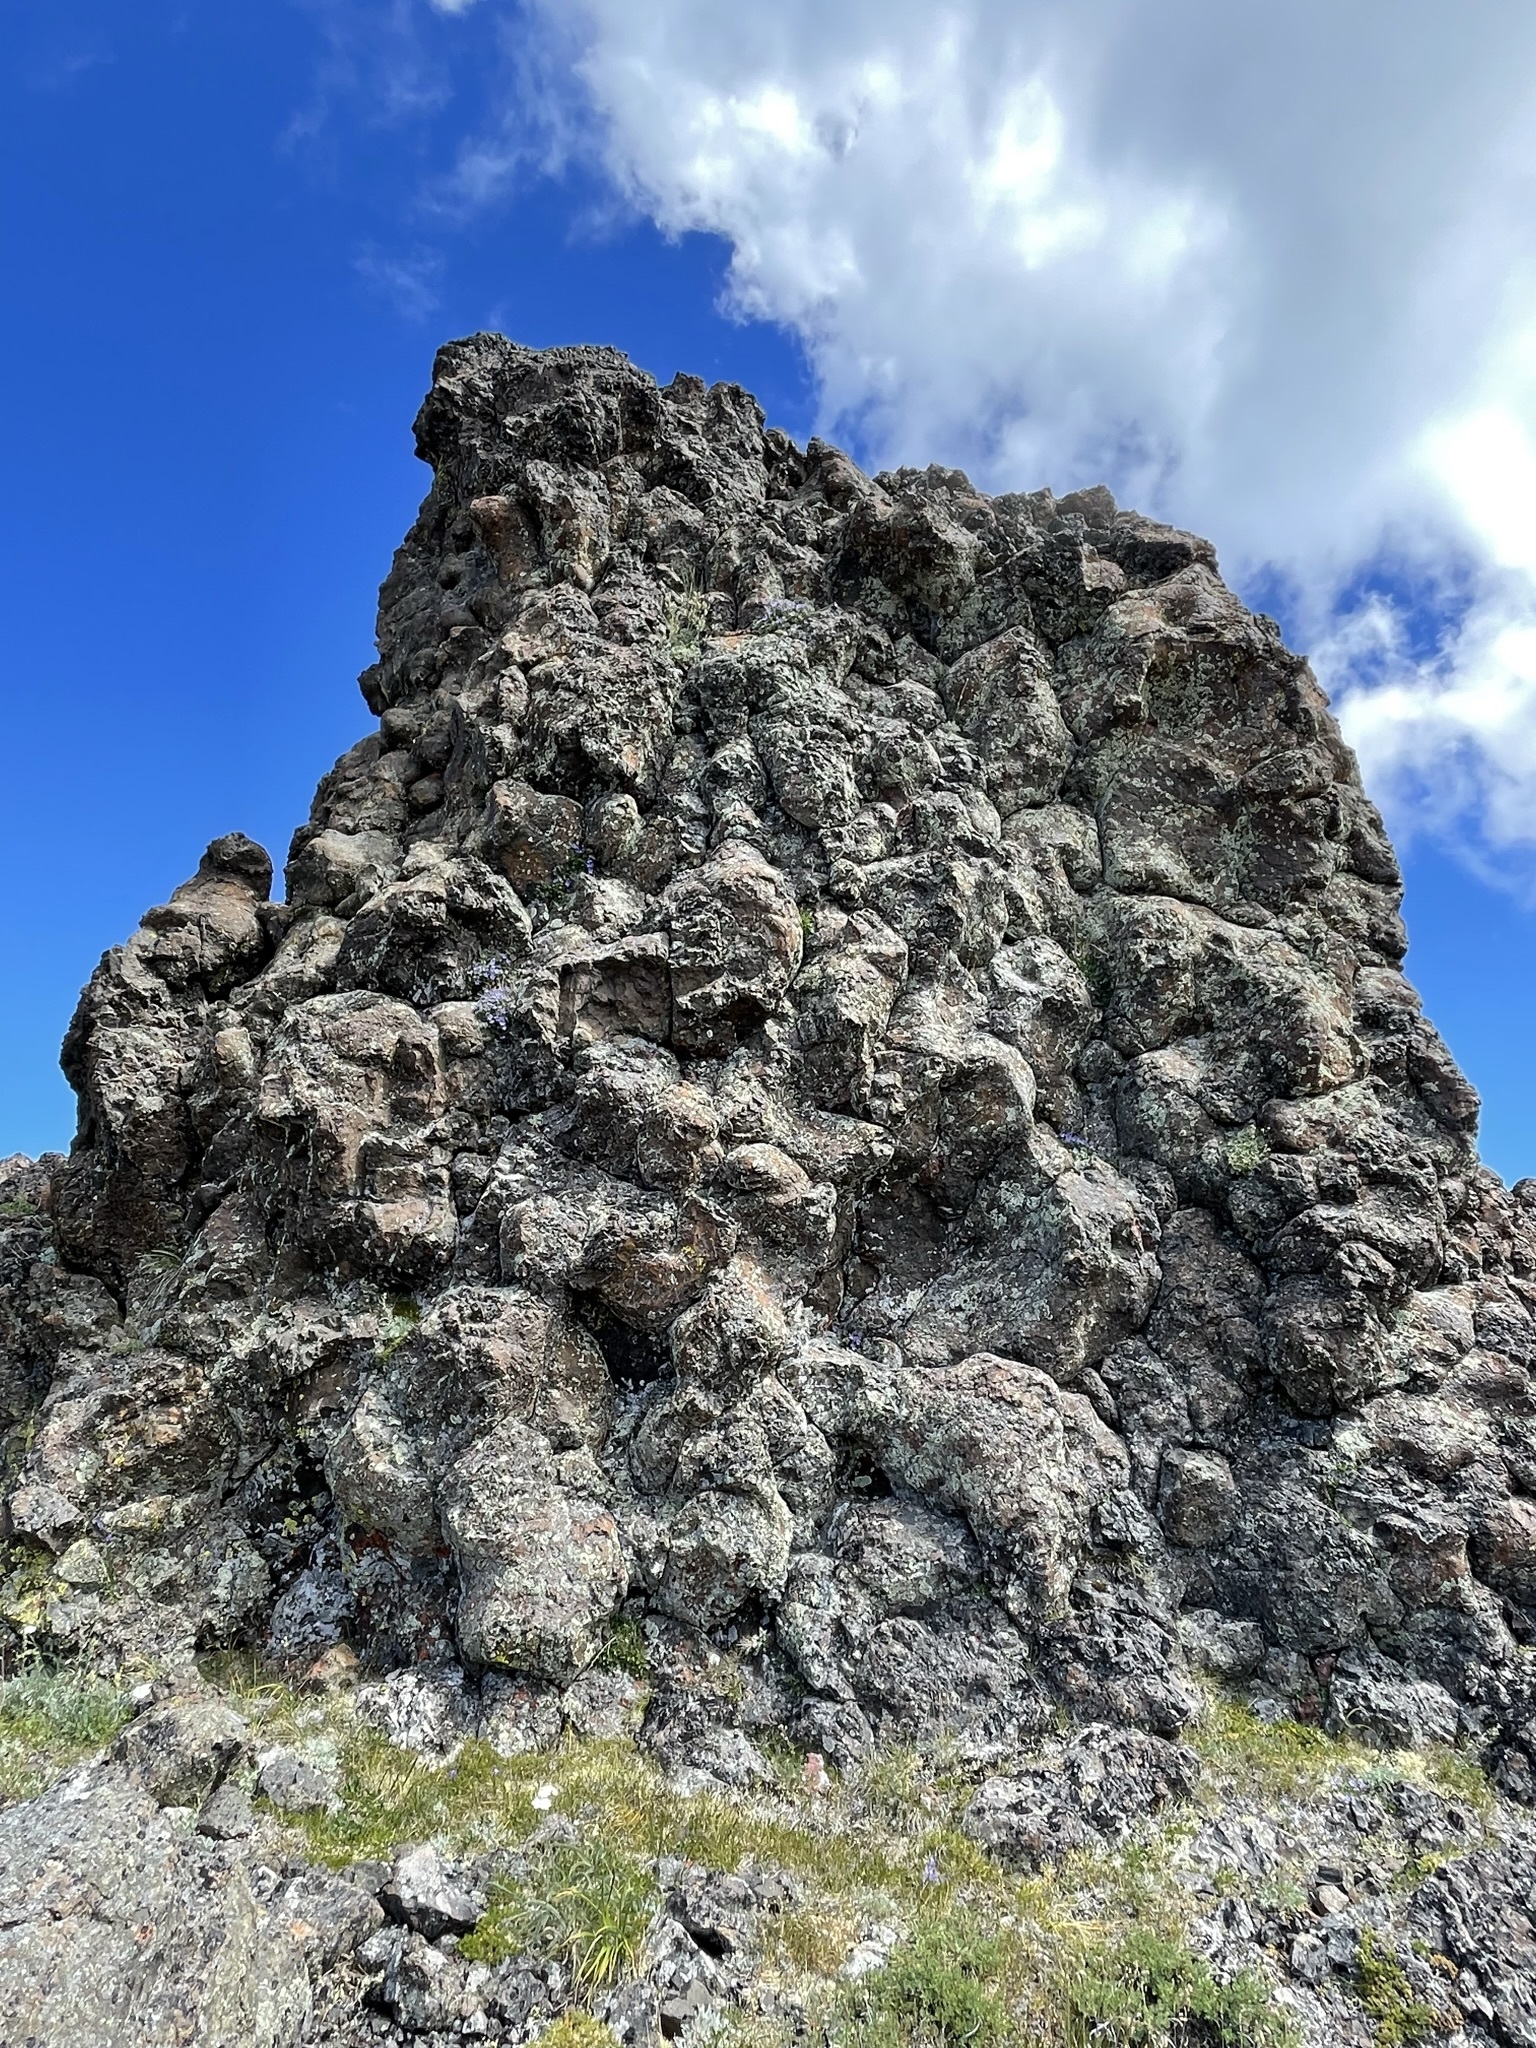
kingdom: Plantae
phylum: Tracheophyta
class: Magnoliopsida
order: Asterales
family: Campanulaceae
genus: Campanula
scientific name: Campanula piperi
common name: Olympic bellflower
